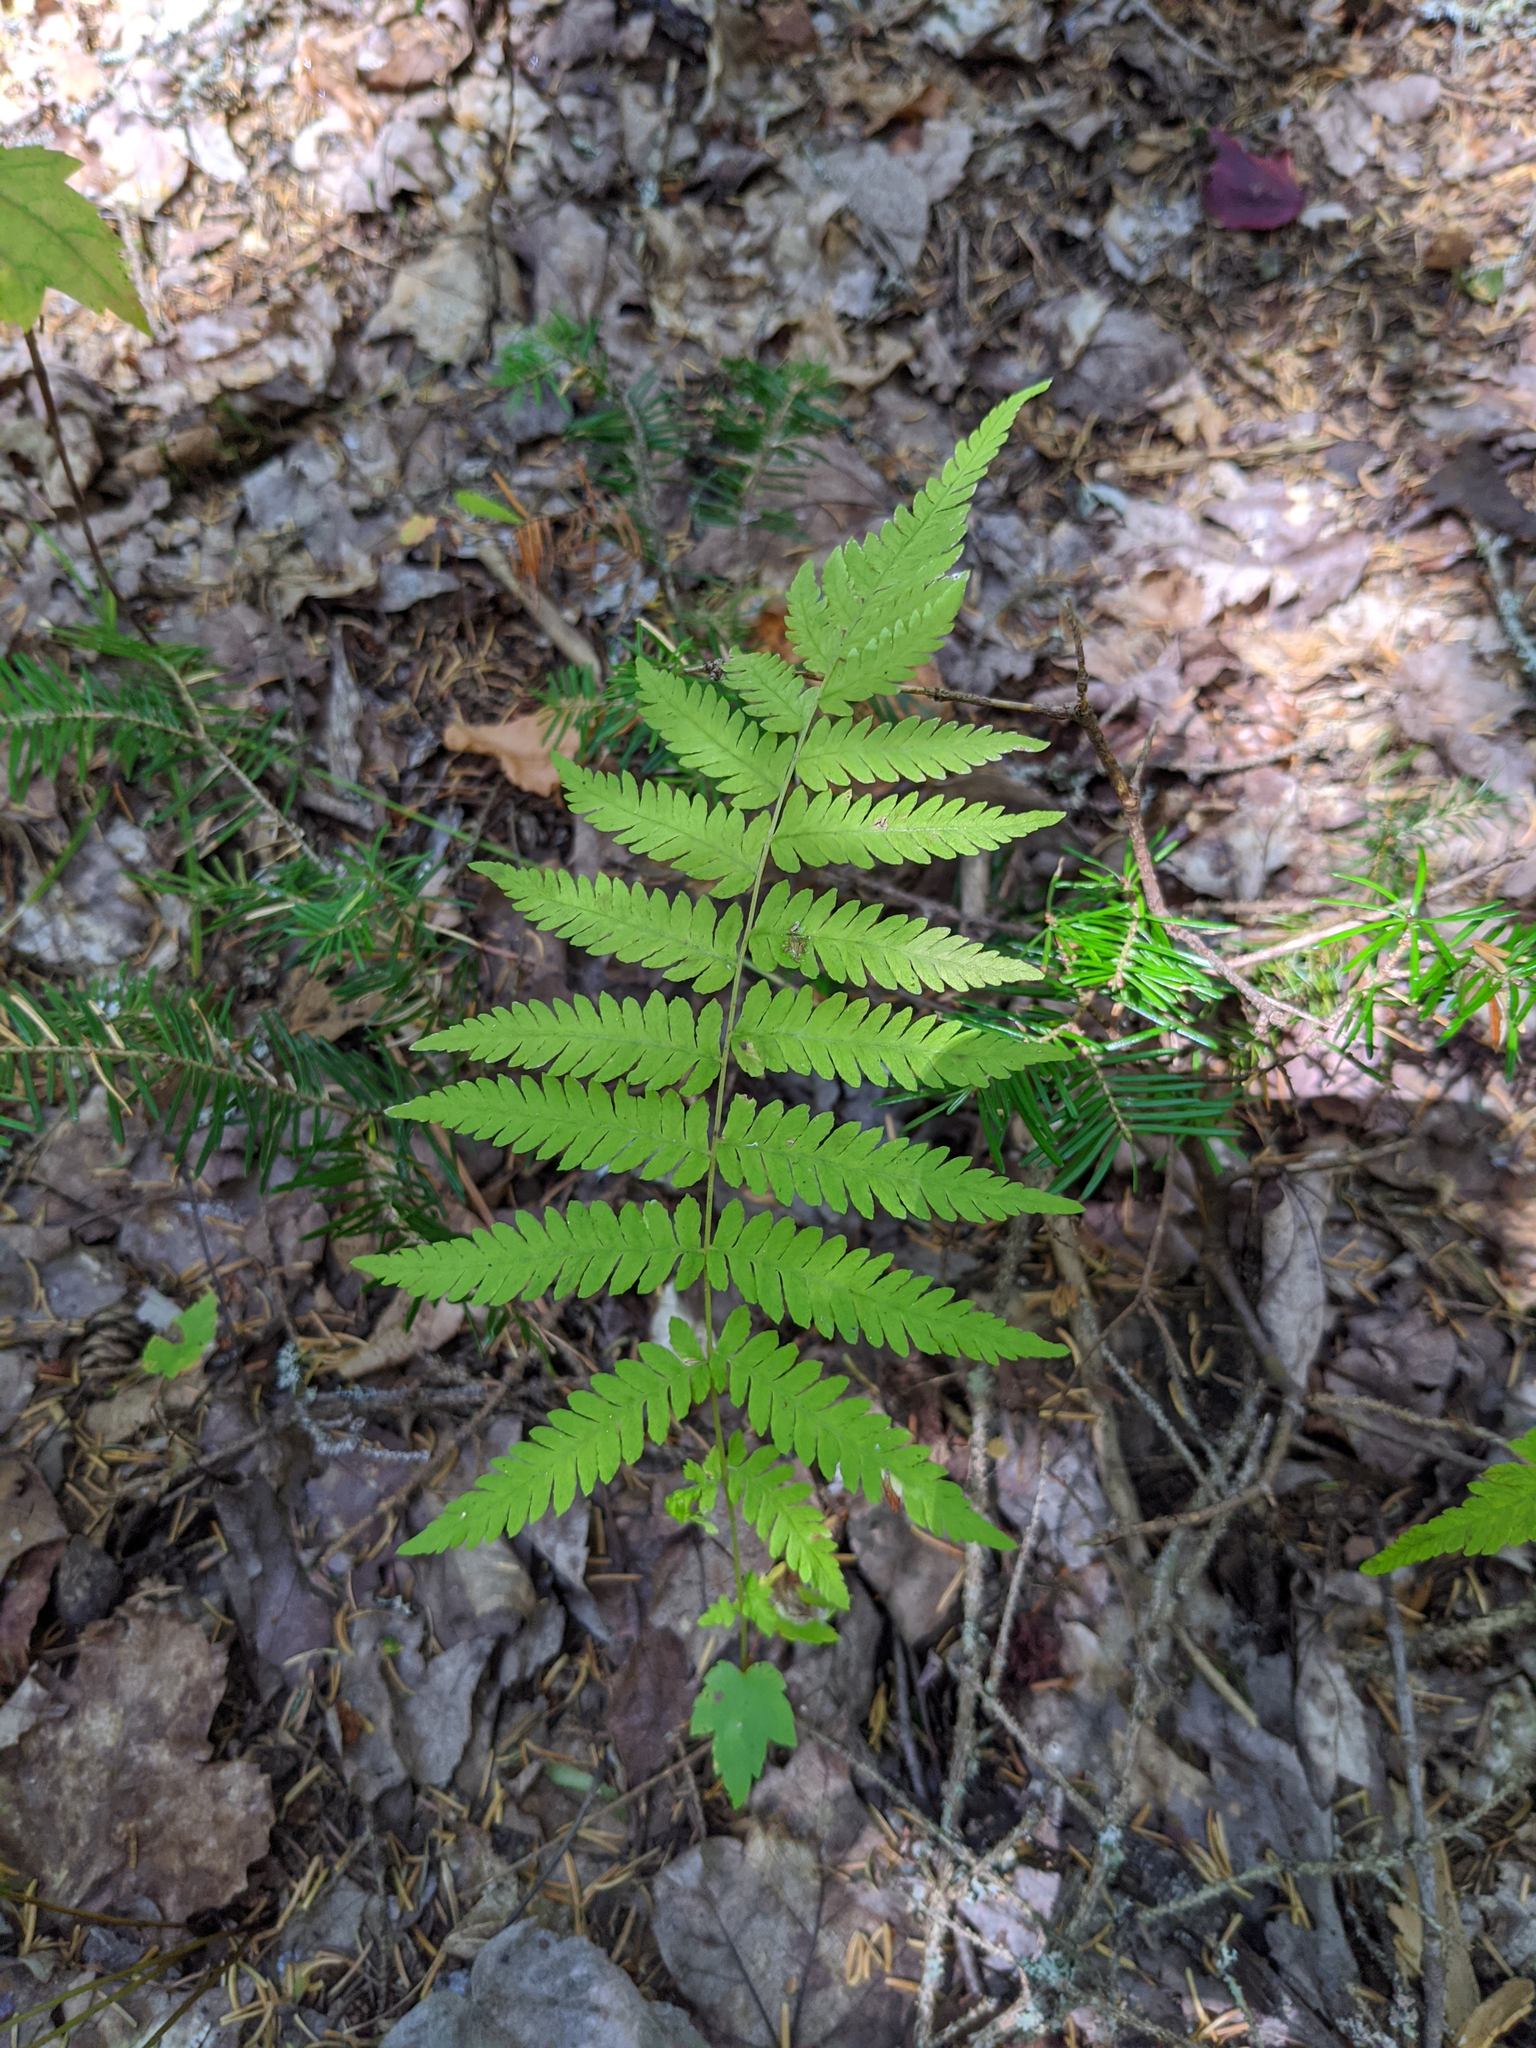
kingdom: Plantae
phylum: Tracheophyta
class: Polypodiopsida
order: Polypodiales
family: Thelypteridaceae
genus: Amauropelta
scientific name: Amauropelta noveboracensis
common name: New york fern
